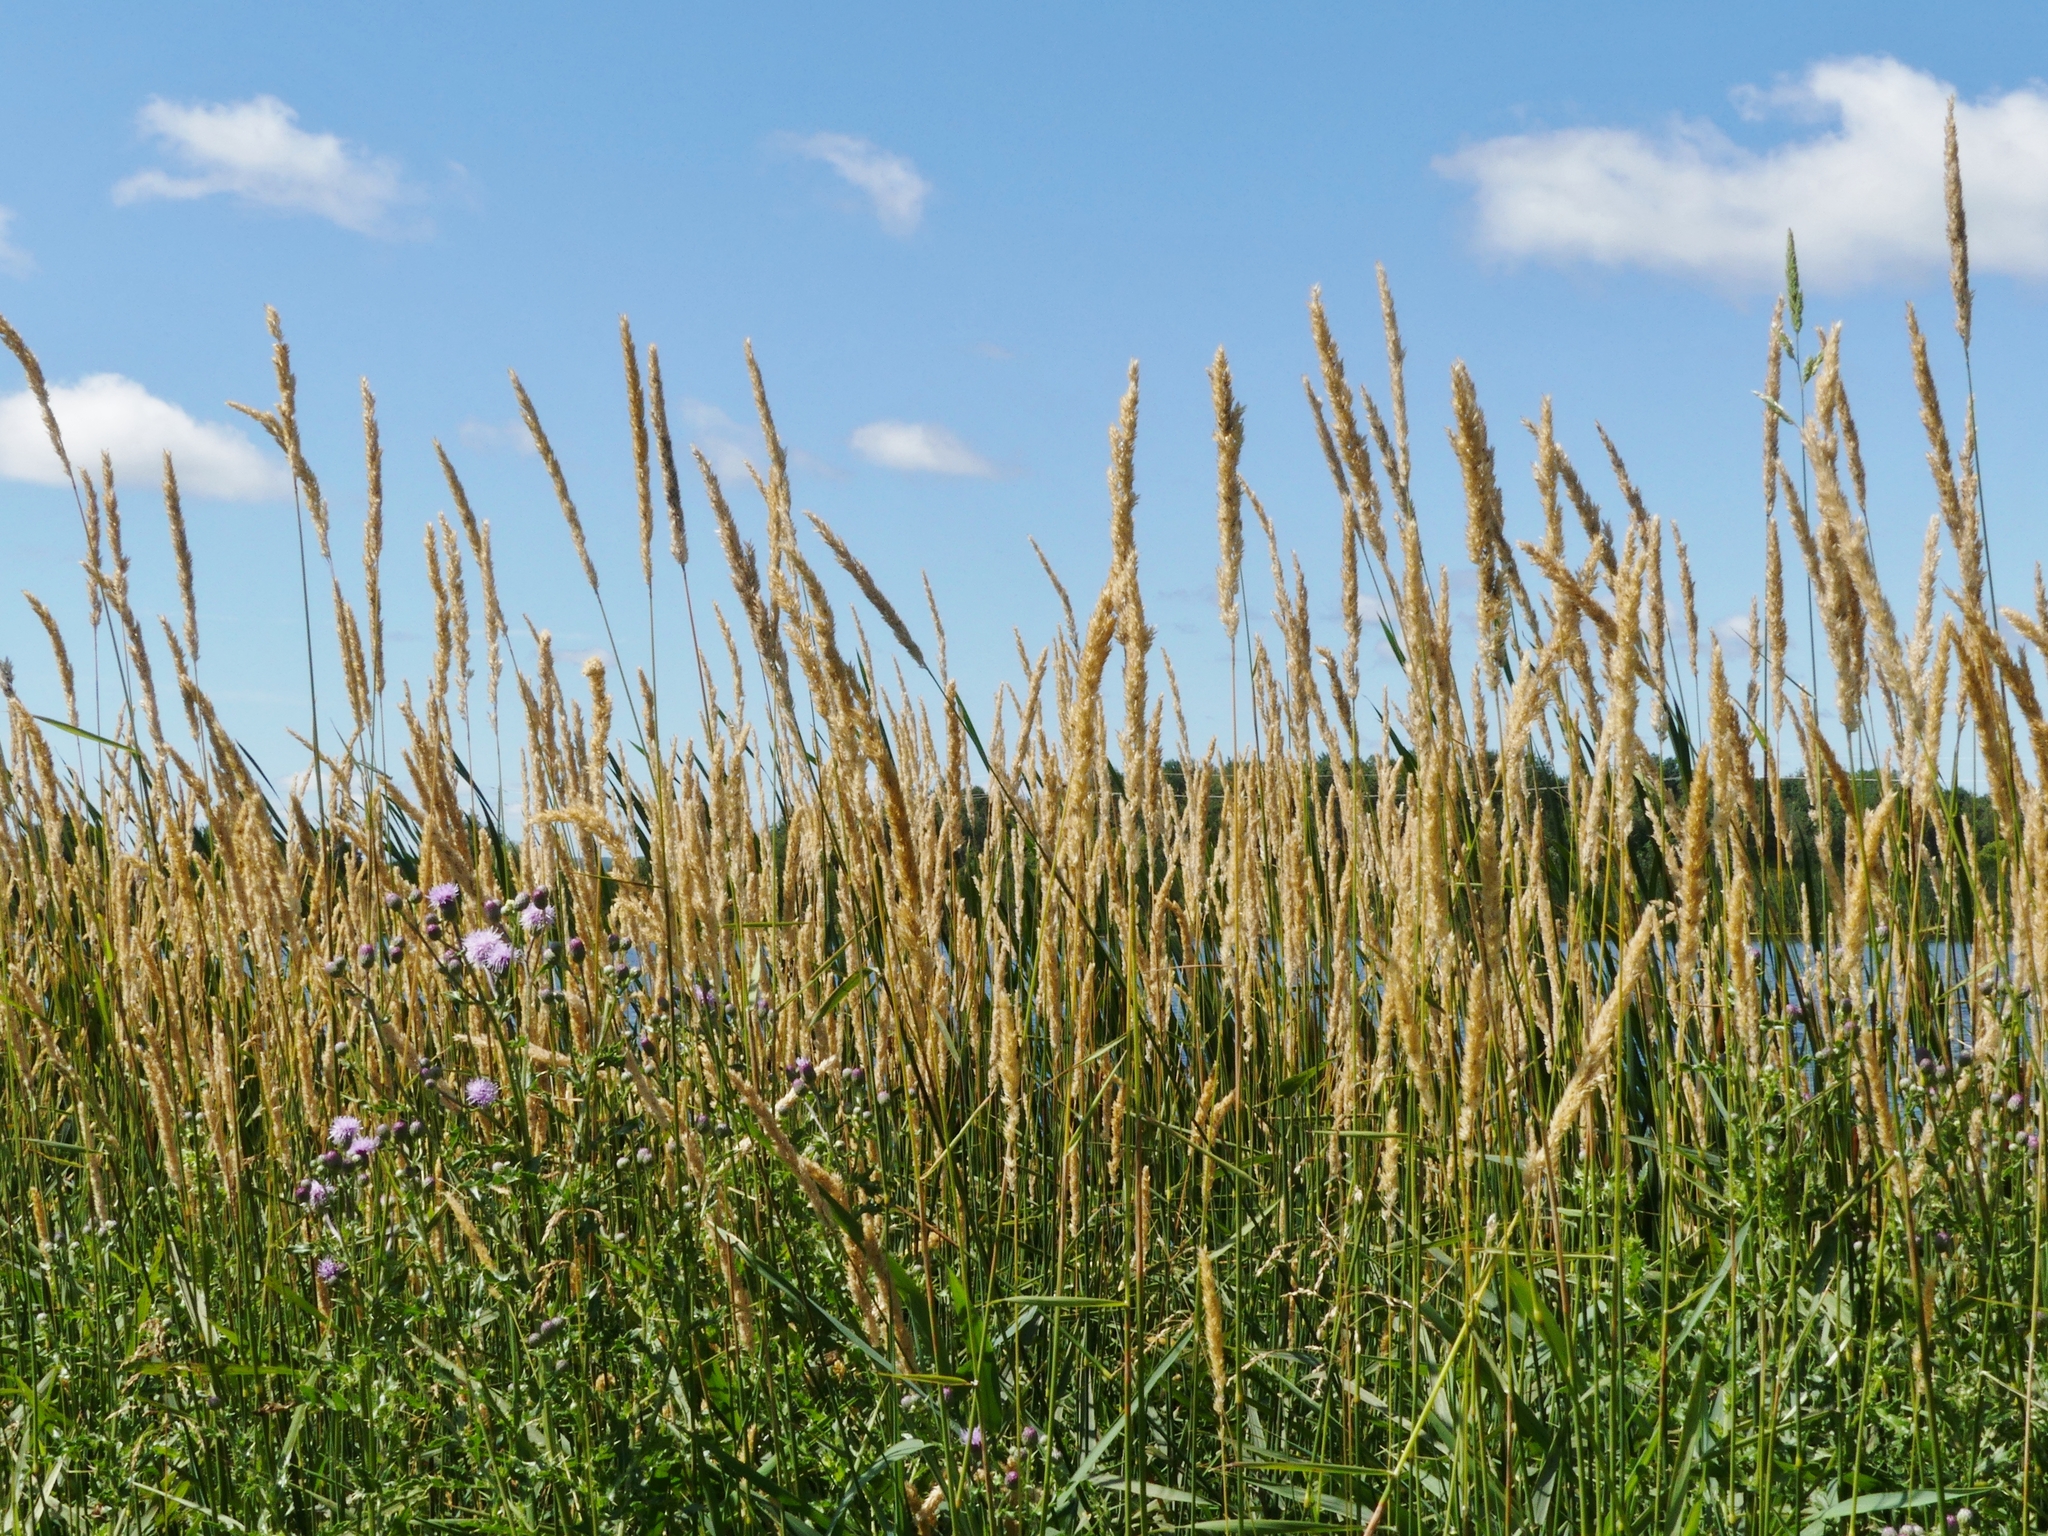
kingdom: Plantae
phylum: Tracheophyta
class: Liliopsida
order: Poales
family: Poaceae
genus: Phalaris
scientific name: Phalaris arundinacea
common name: Reed canary-grass
